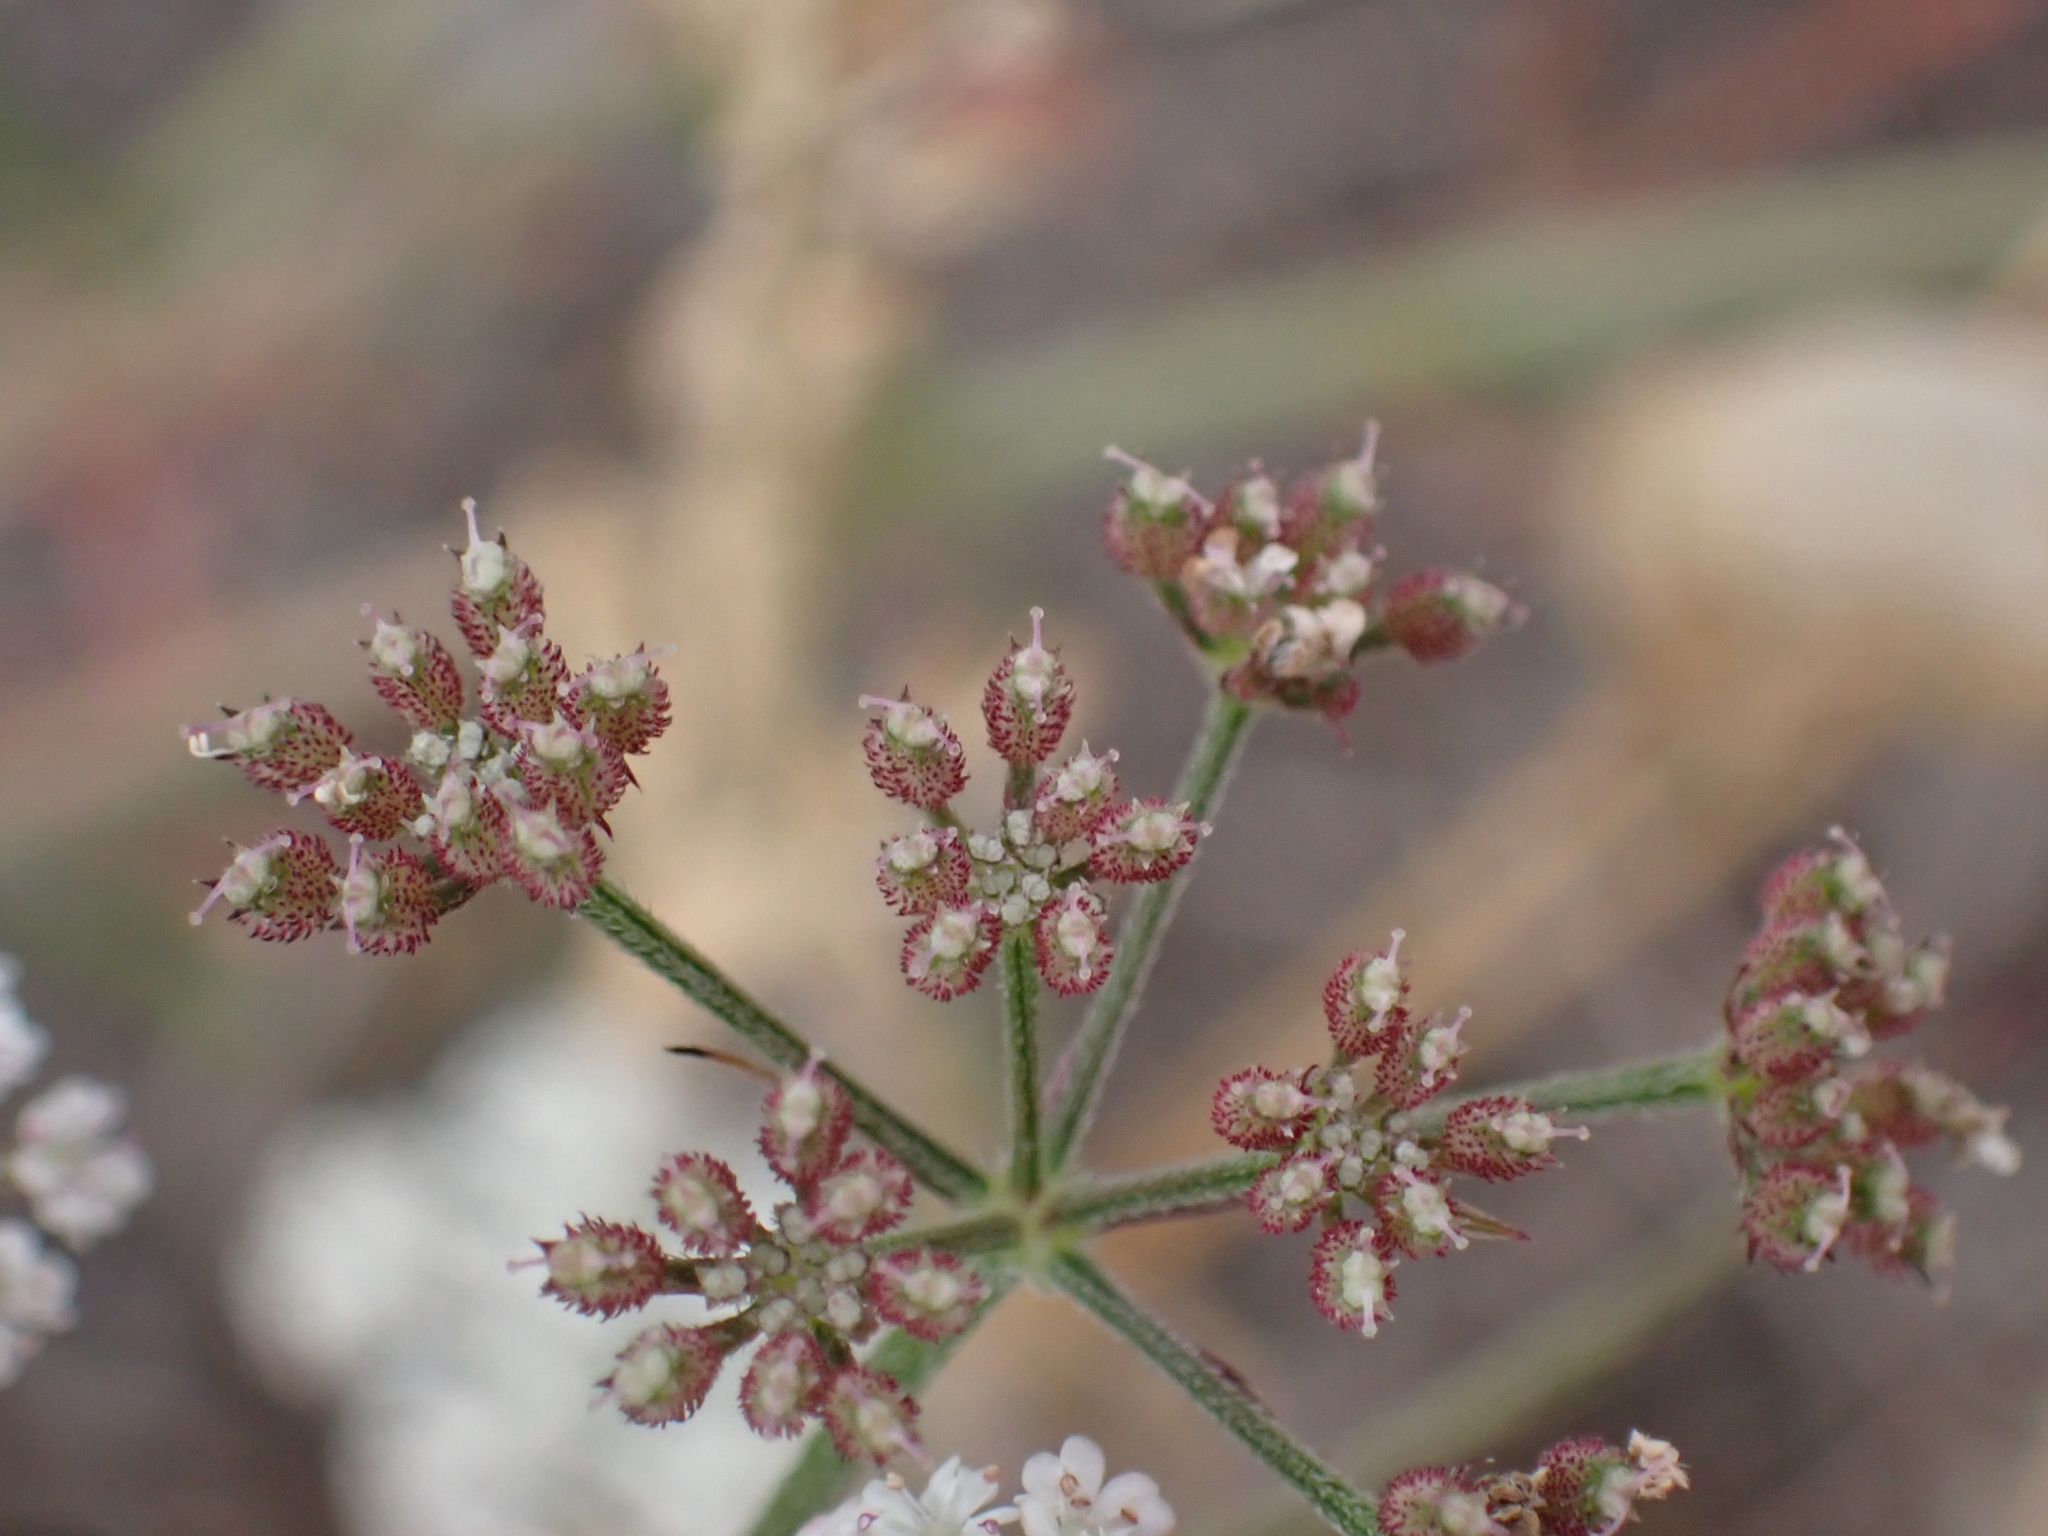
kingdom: Plantae
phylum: Tracheophyta
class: Magnoliopsida
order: Apiales
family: Apiaceae
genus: Torilis
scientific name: Torilis japonica
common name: Upright hedge-parsley
